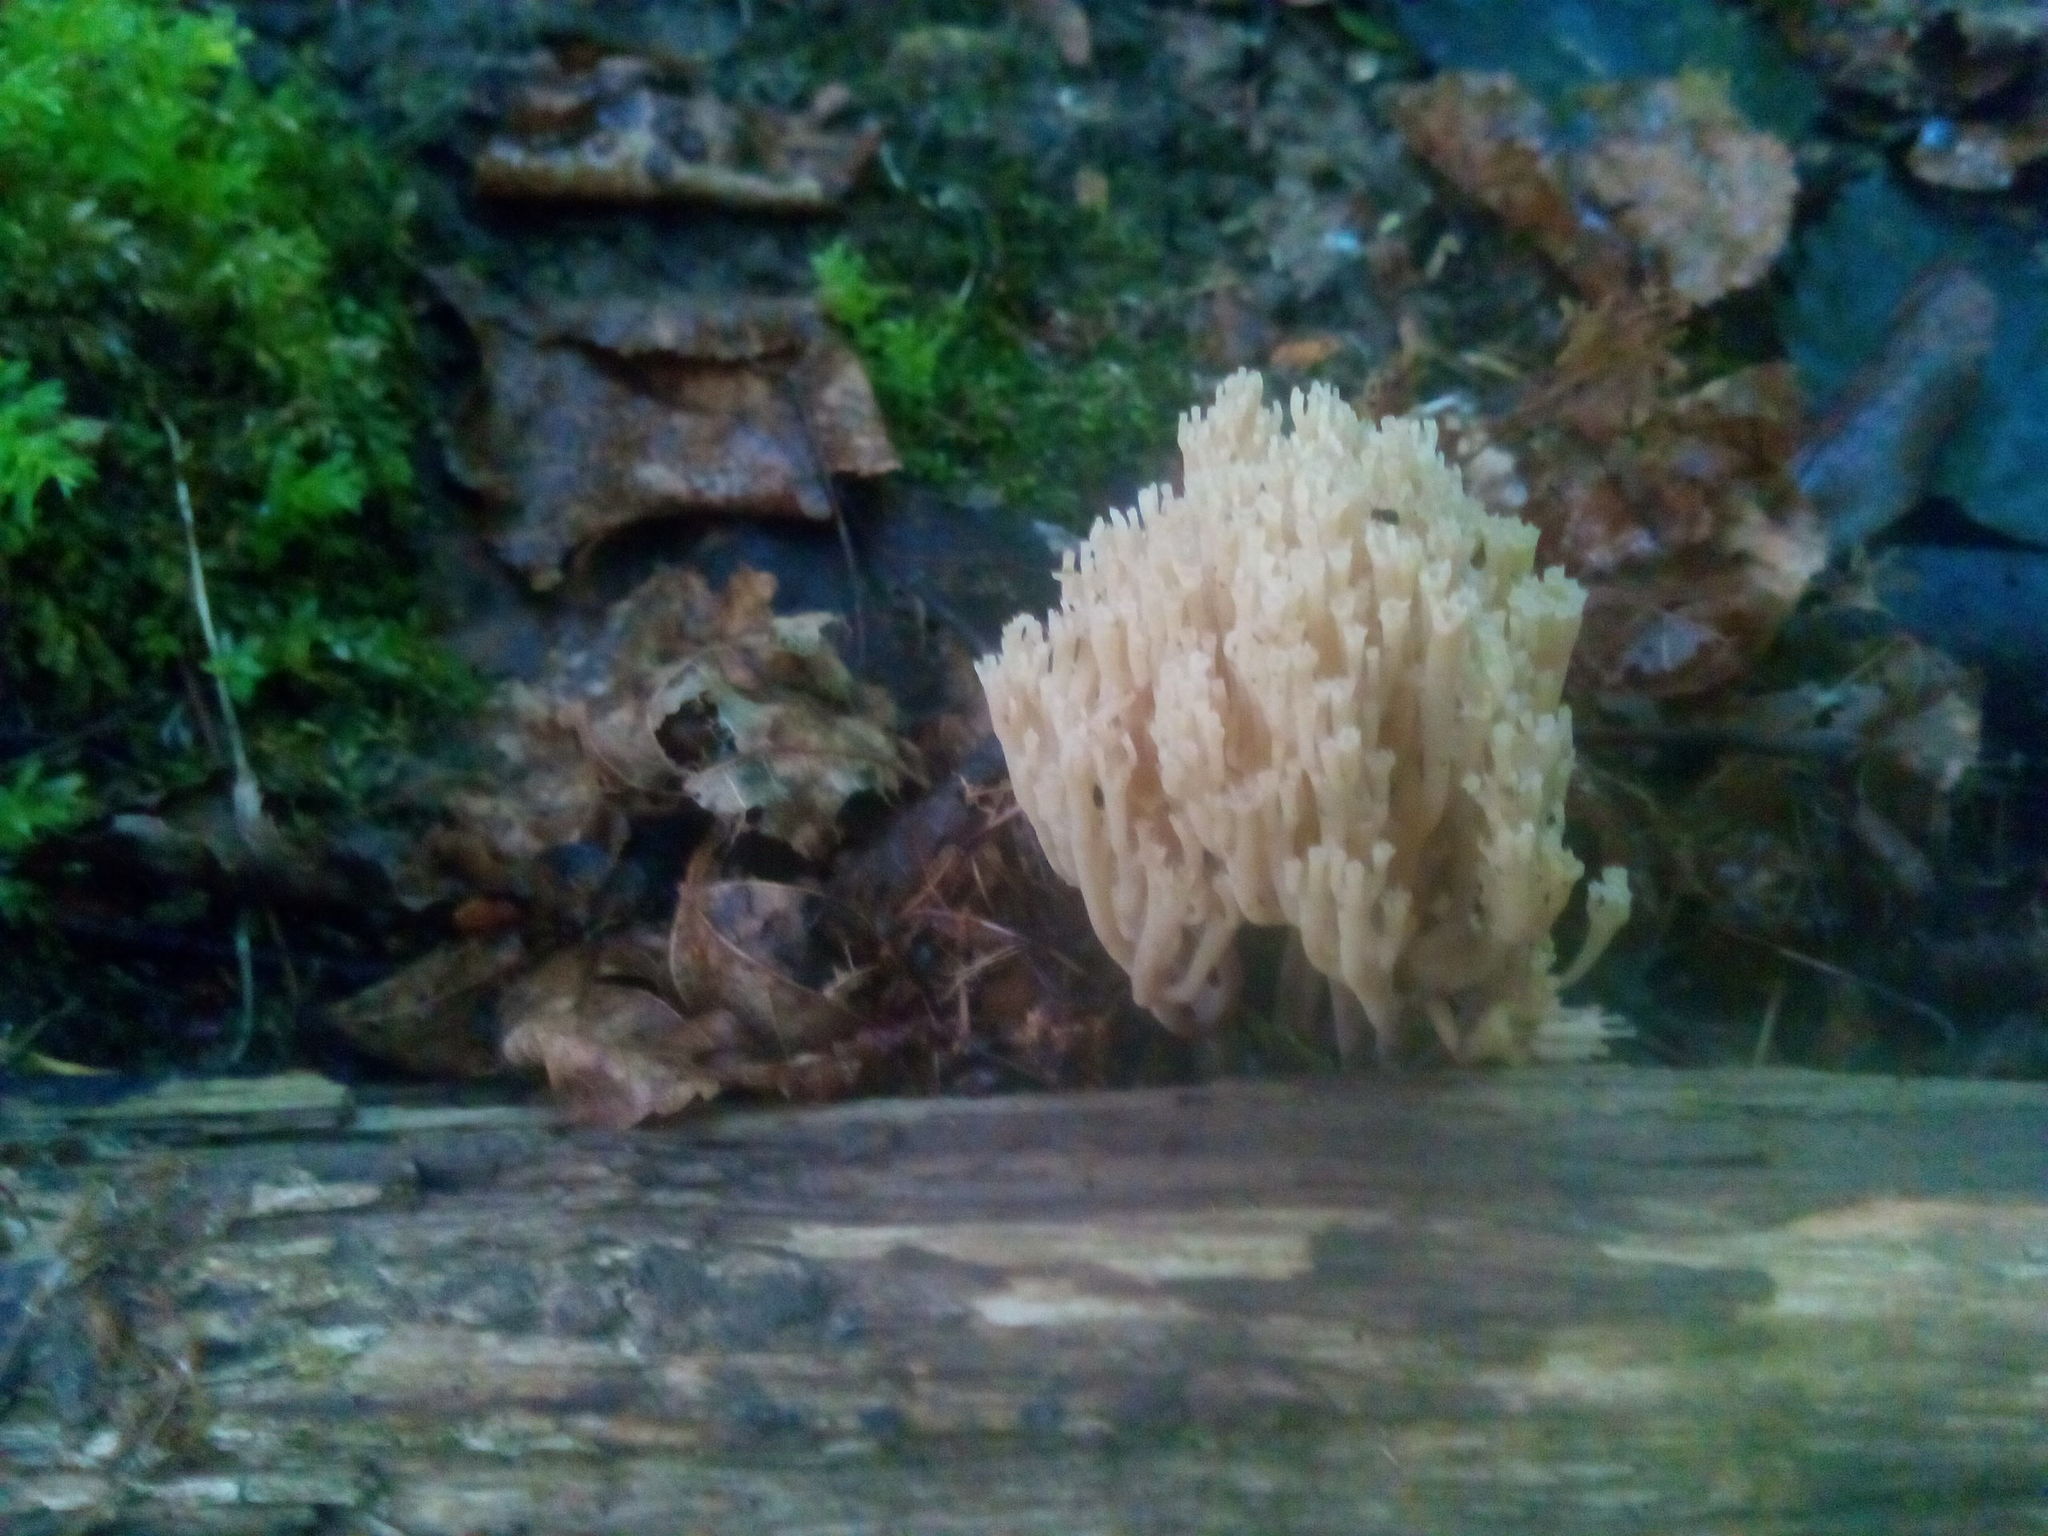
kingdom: Fungi
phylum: Basidiomycota
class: Agaricomycetes
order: Russulales
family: Auriscalpiaceae
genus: Artomyces
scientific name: Artomyces pyxidatus
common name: Crown-tipped coral fungus
